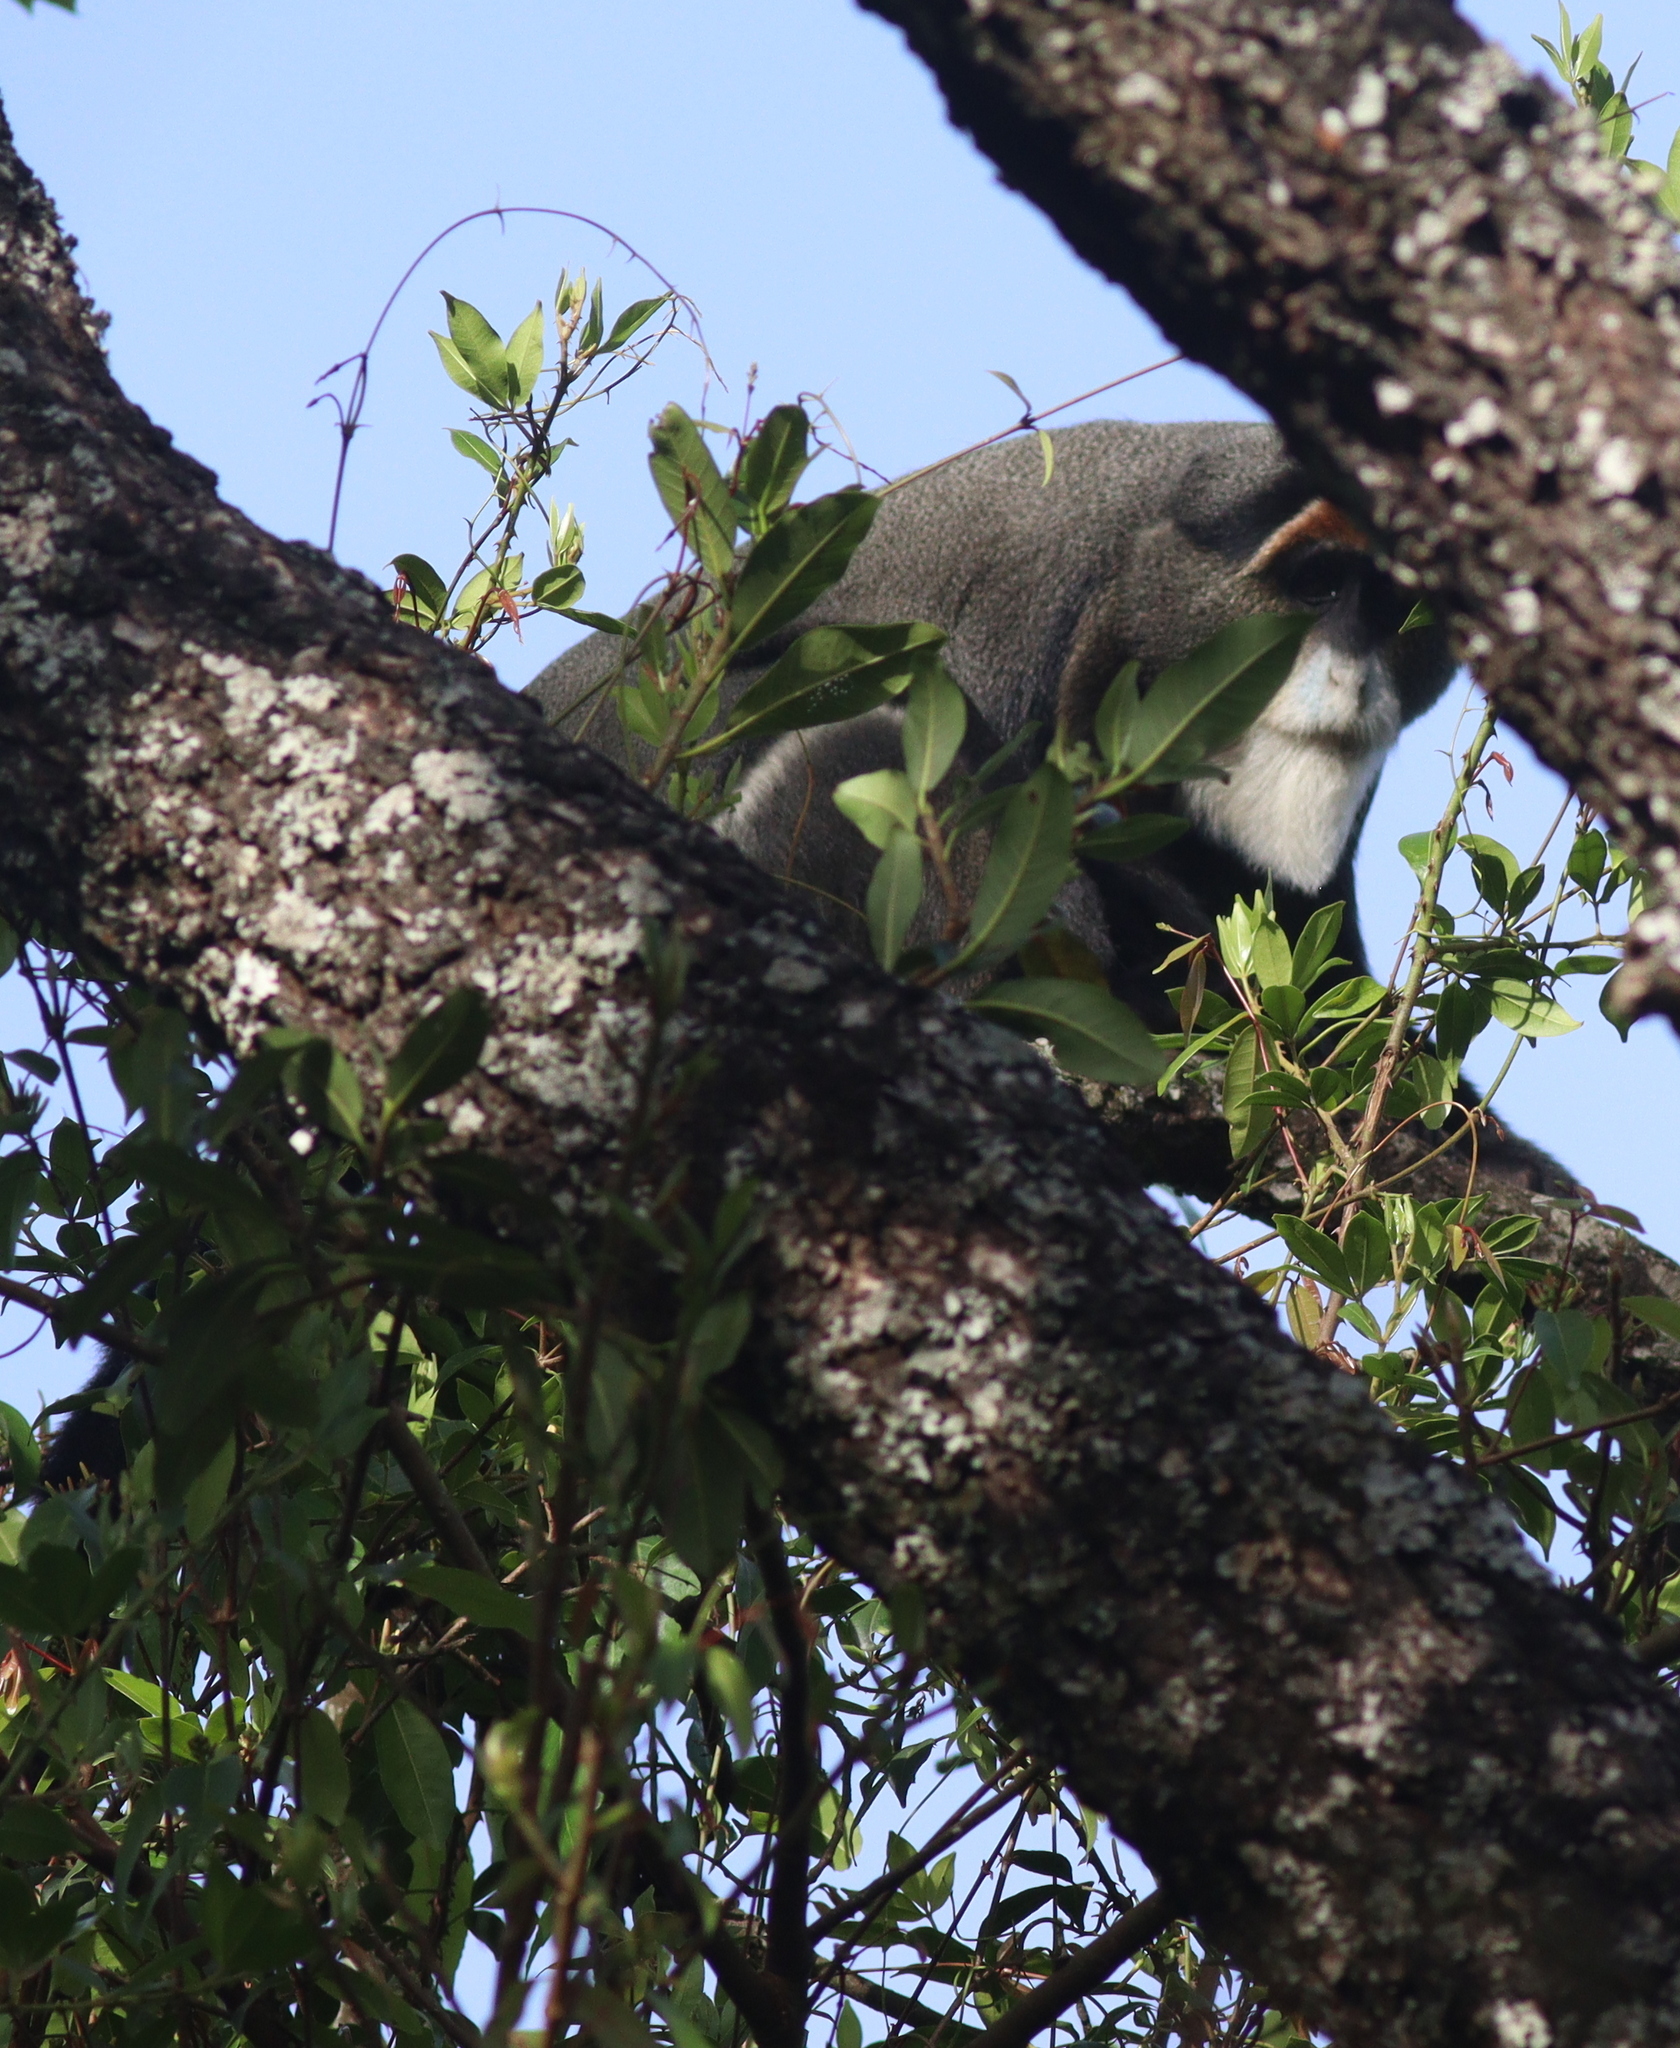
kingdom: Animalia
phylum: Chordata
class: Mammalia
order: Primates
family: Cercopithecidae
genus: Cercopithecus
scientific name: Cercopithecus neglectus
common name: De brazza's guenon
